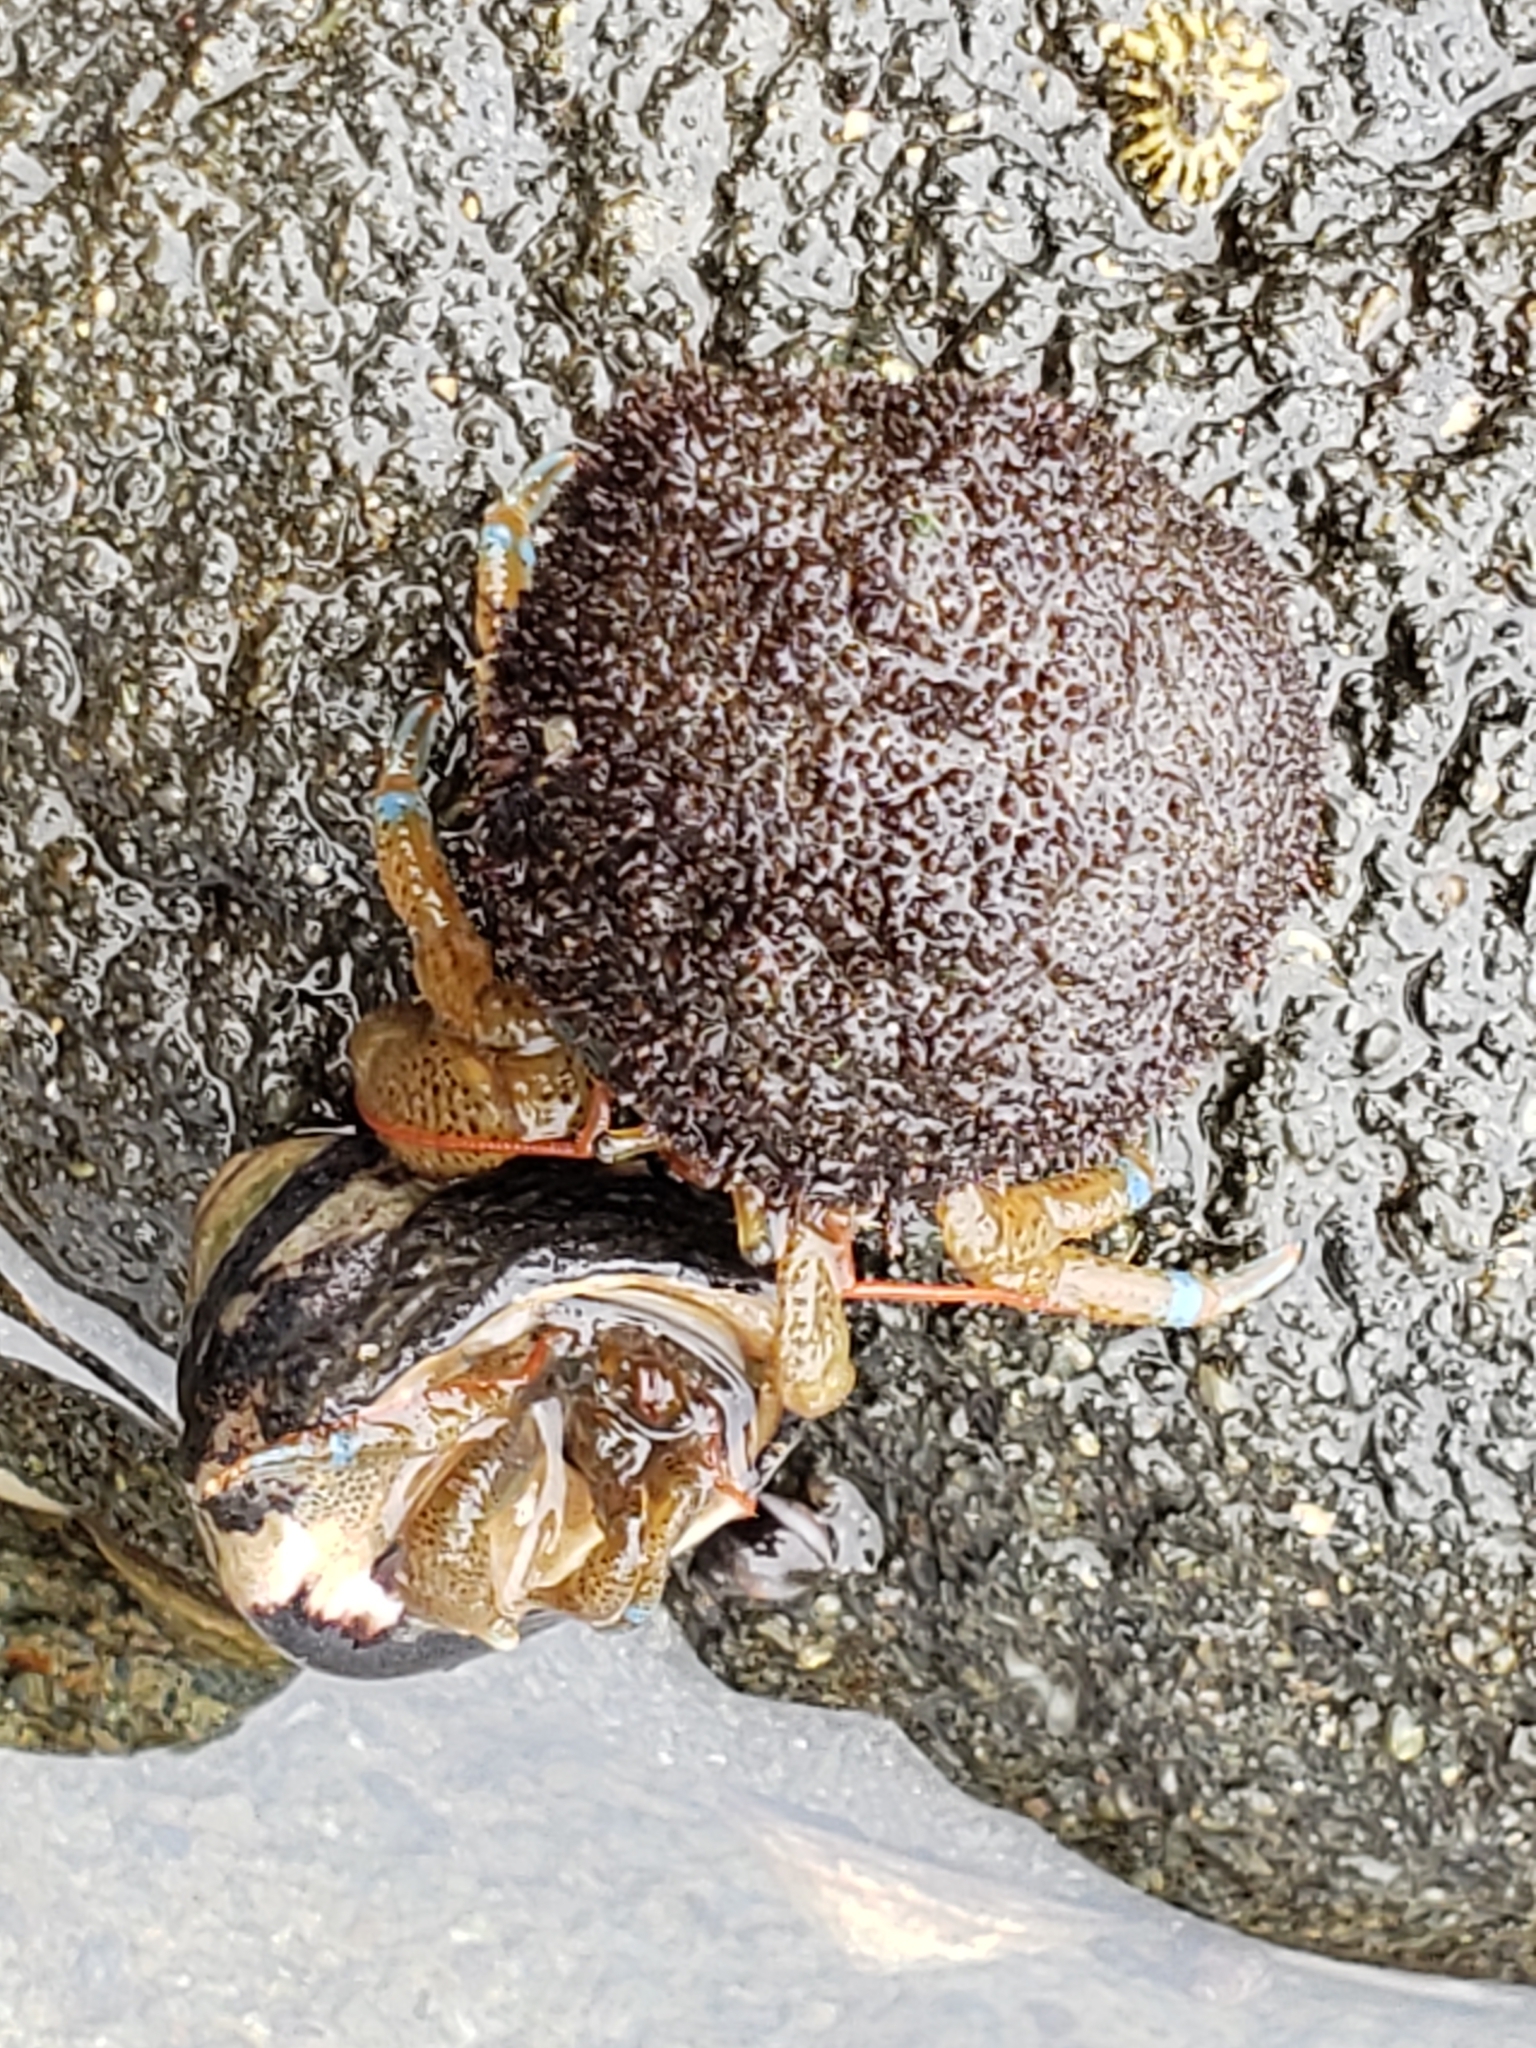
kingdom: Animalia
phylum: Arthropoda
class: Malacostraca
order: Decapoda
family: Paguridae
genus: Pagurus
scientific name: Pagurus samuelis
